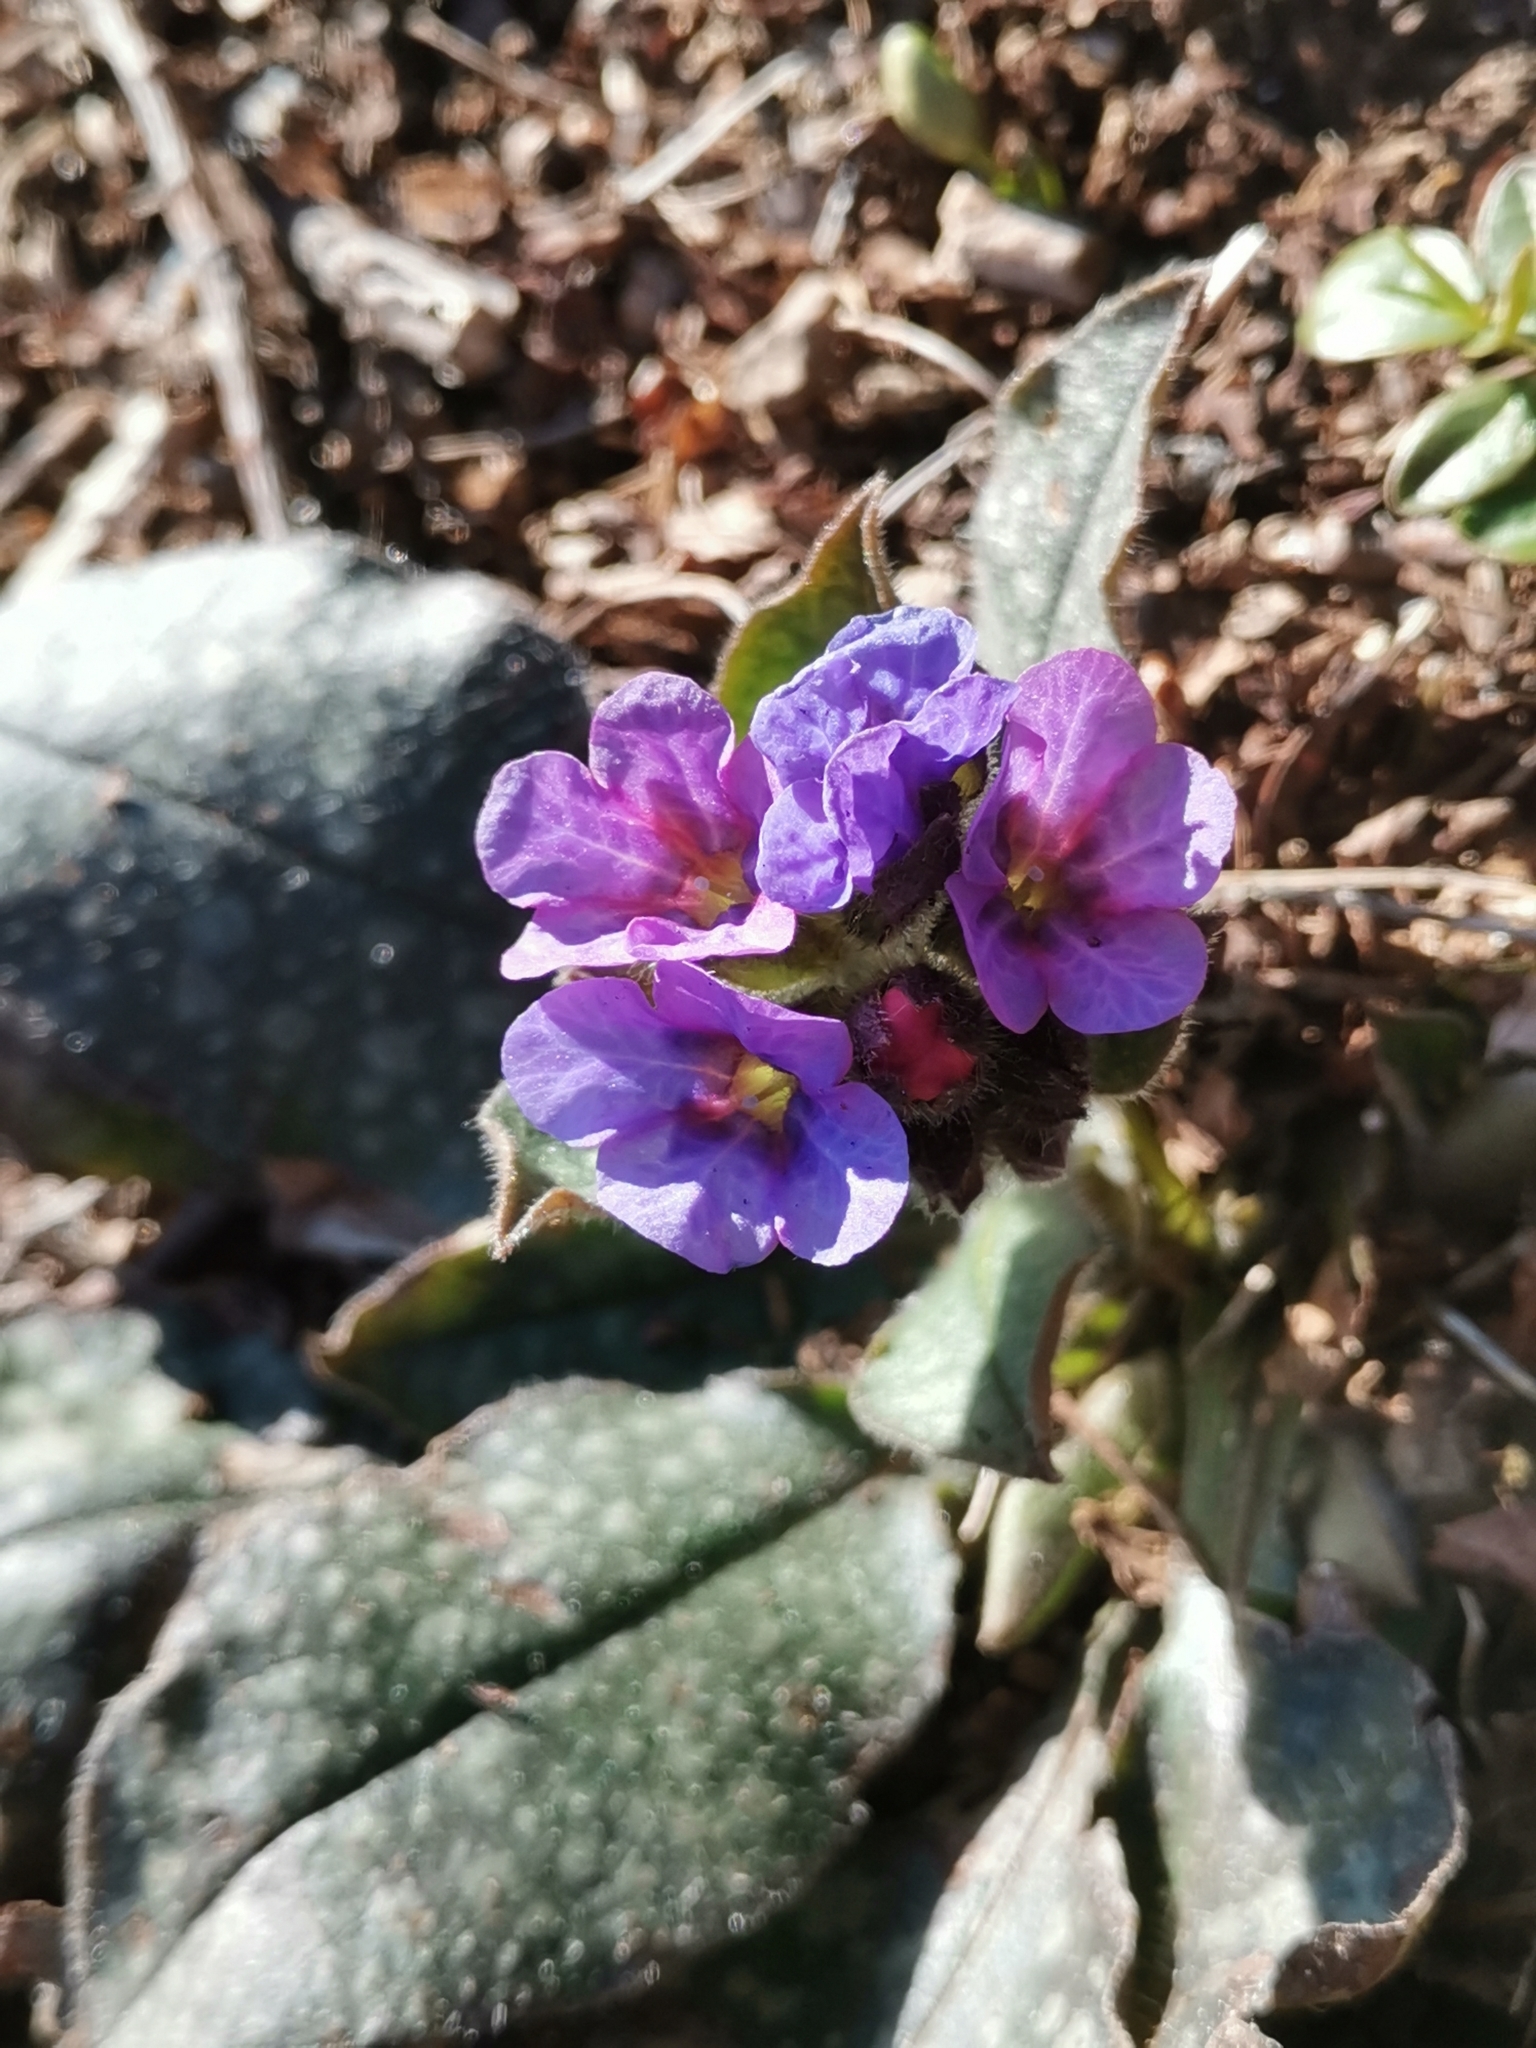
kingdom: Plantae
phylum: Tracheophyta
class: Magnoliopsida
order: Boraginales
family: Boraginaceae
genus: Pulmonaria
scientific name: Pulmonaria officinalis
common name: Lungwort
